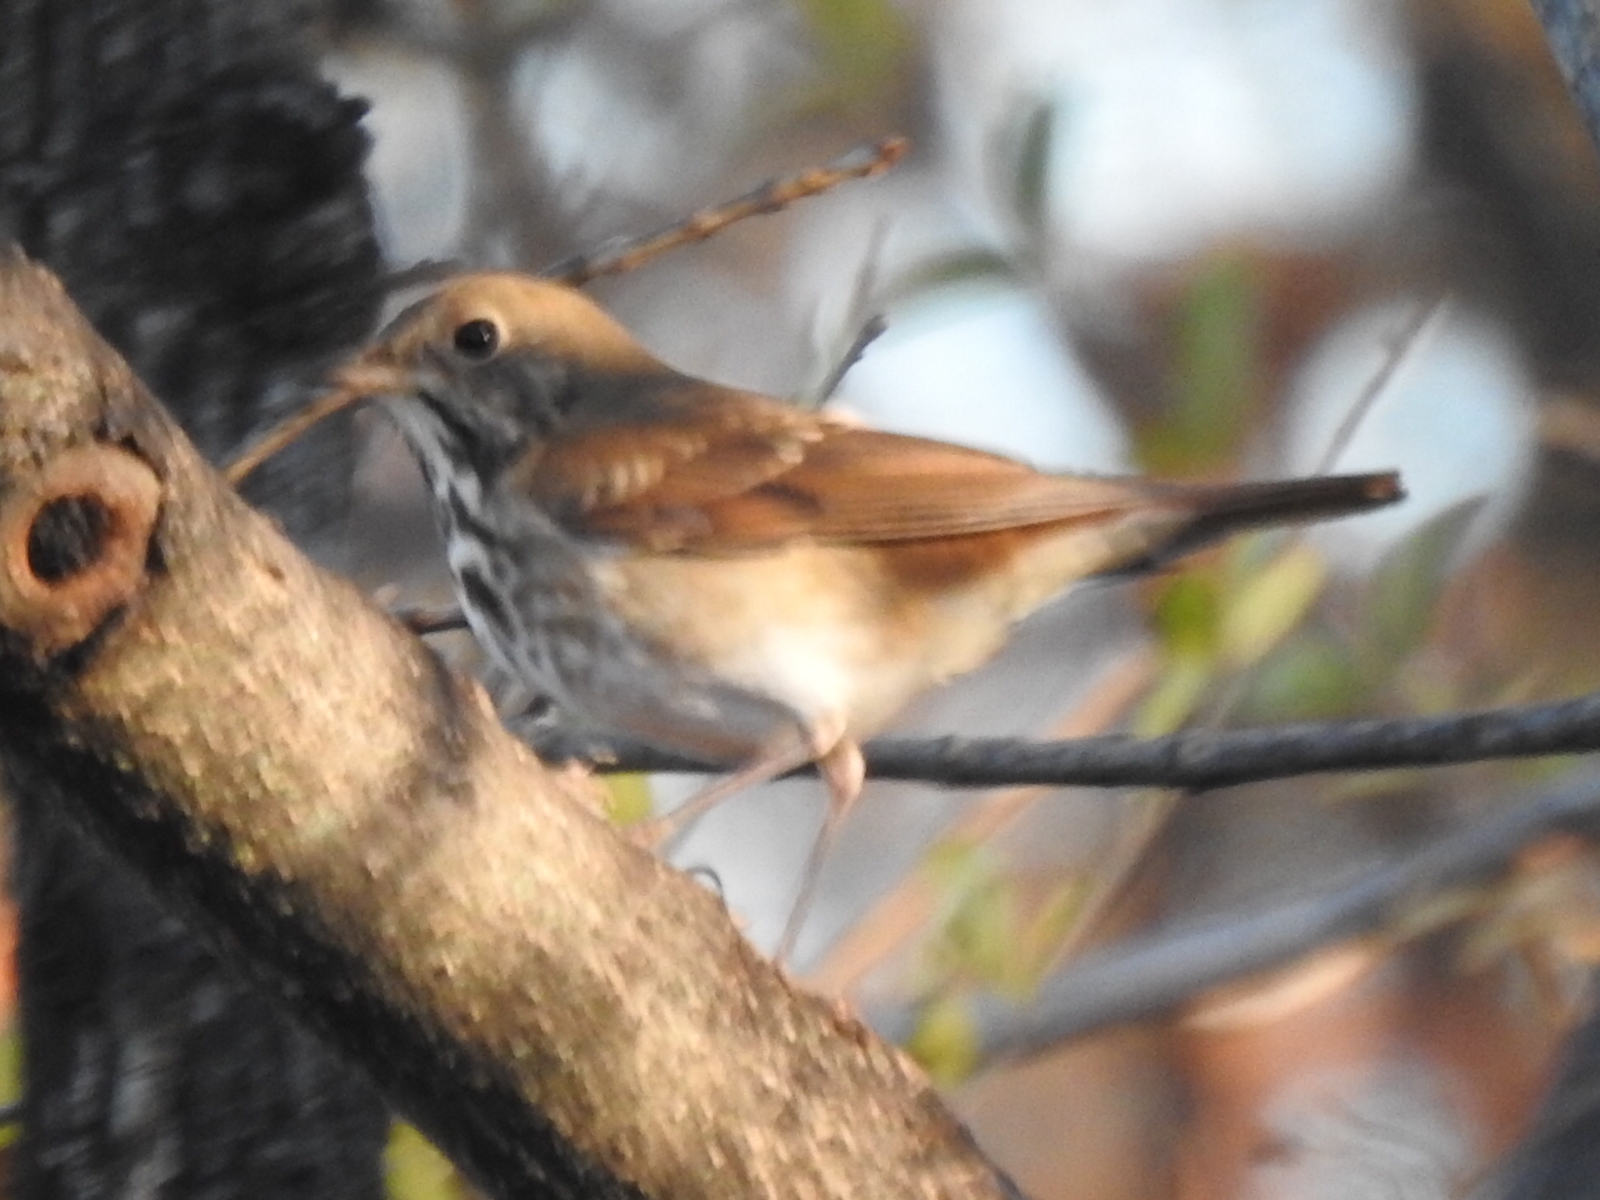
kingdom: Animalia
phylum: Chordata
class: Aves
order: Passeriformes
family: Turdidae
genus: Catharus
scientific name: Catharus guttatus
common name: Hermit thrush
